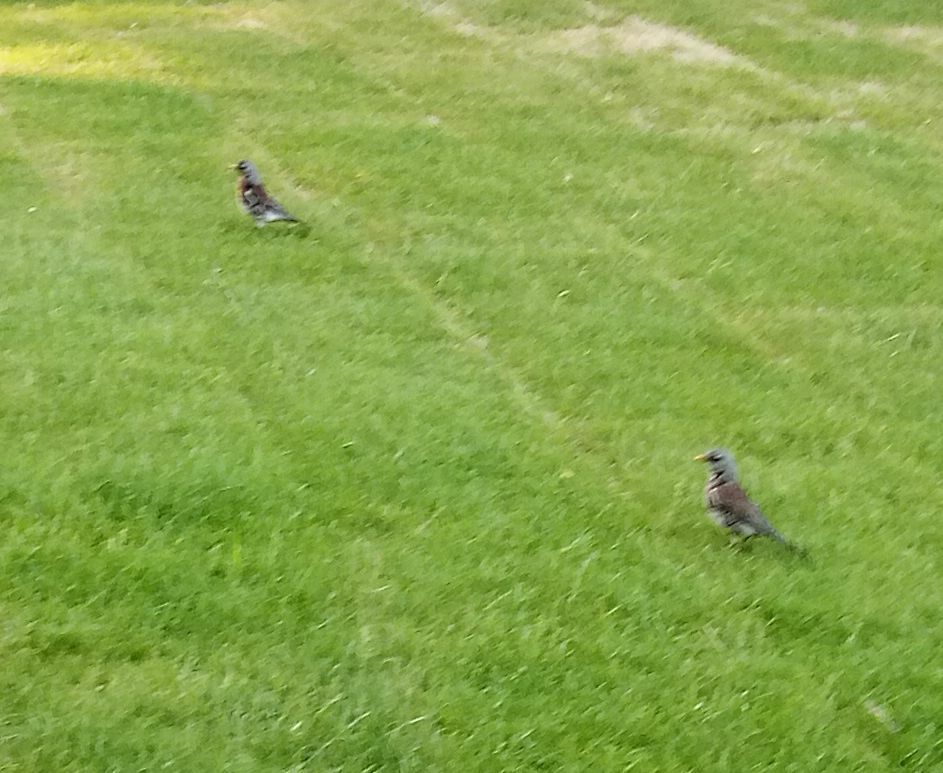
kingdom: Animalia
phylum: Chordata
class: Aves
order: Passeriformes
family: Turdidae
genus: Turdus
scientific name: Turdus pilaris
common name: Fieldfare
